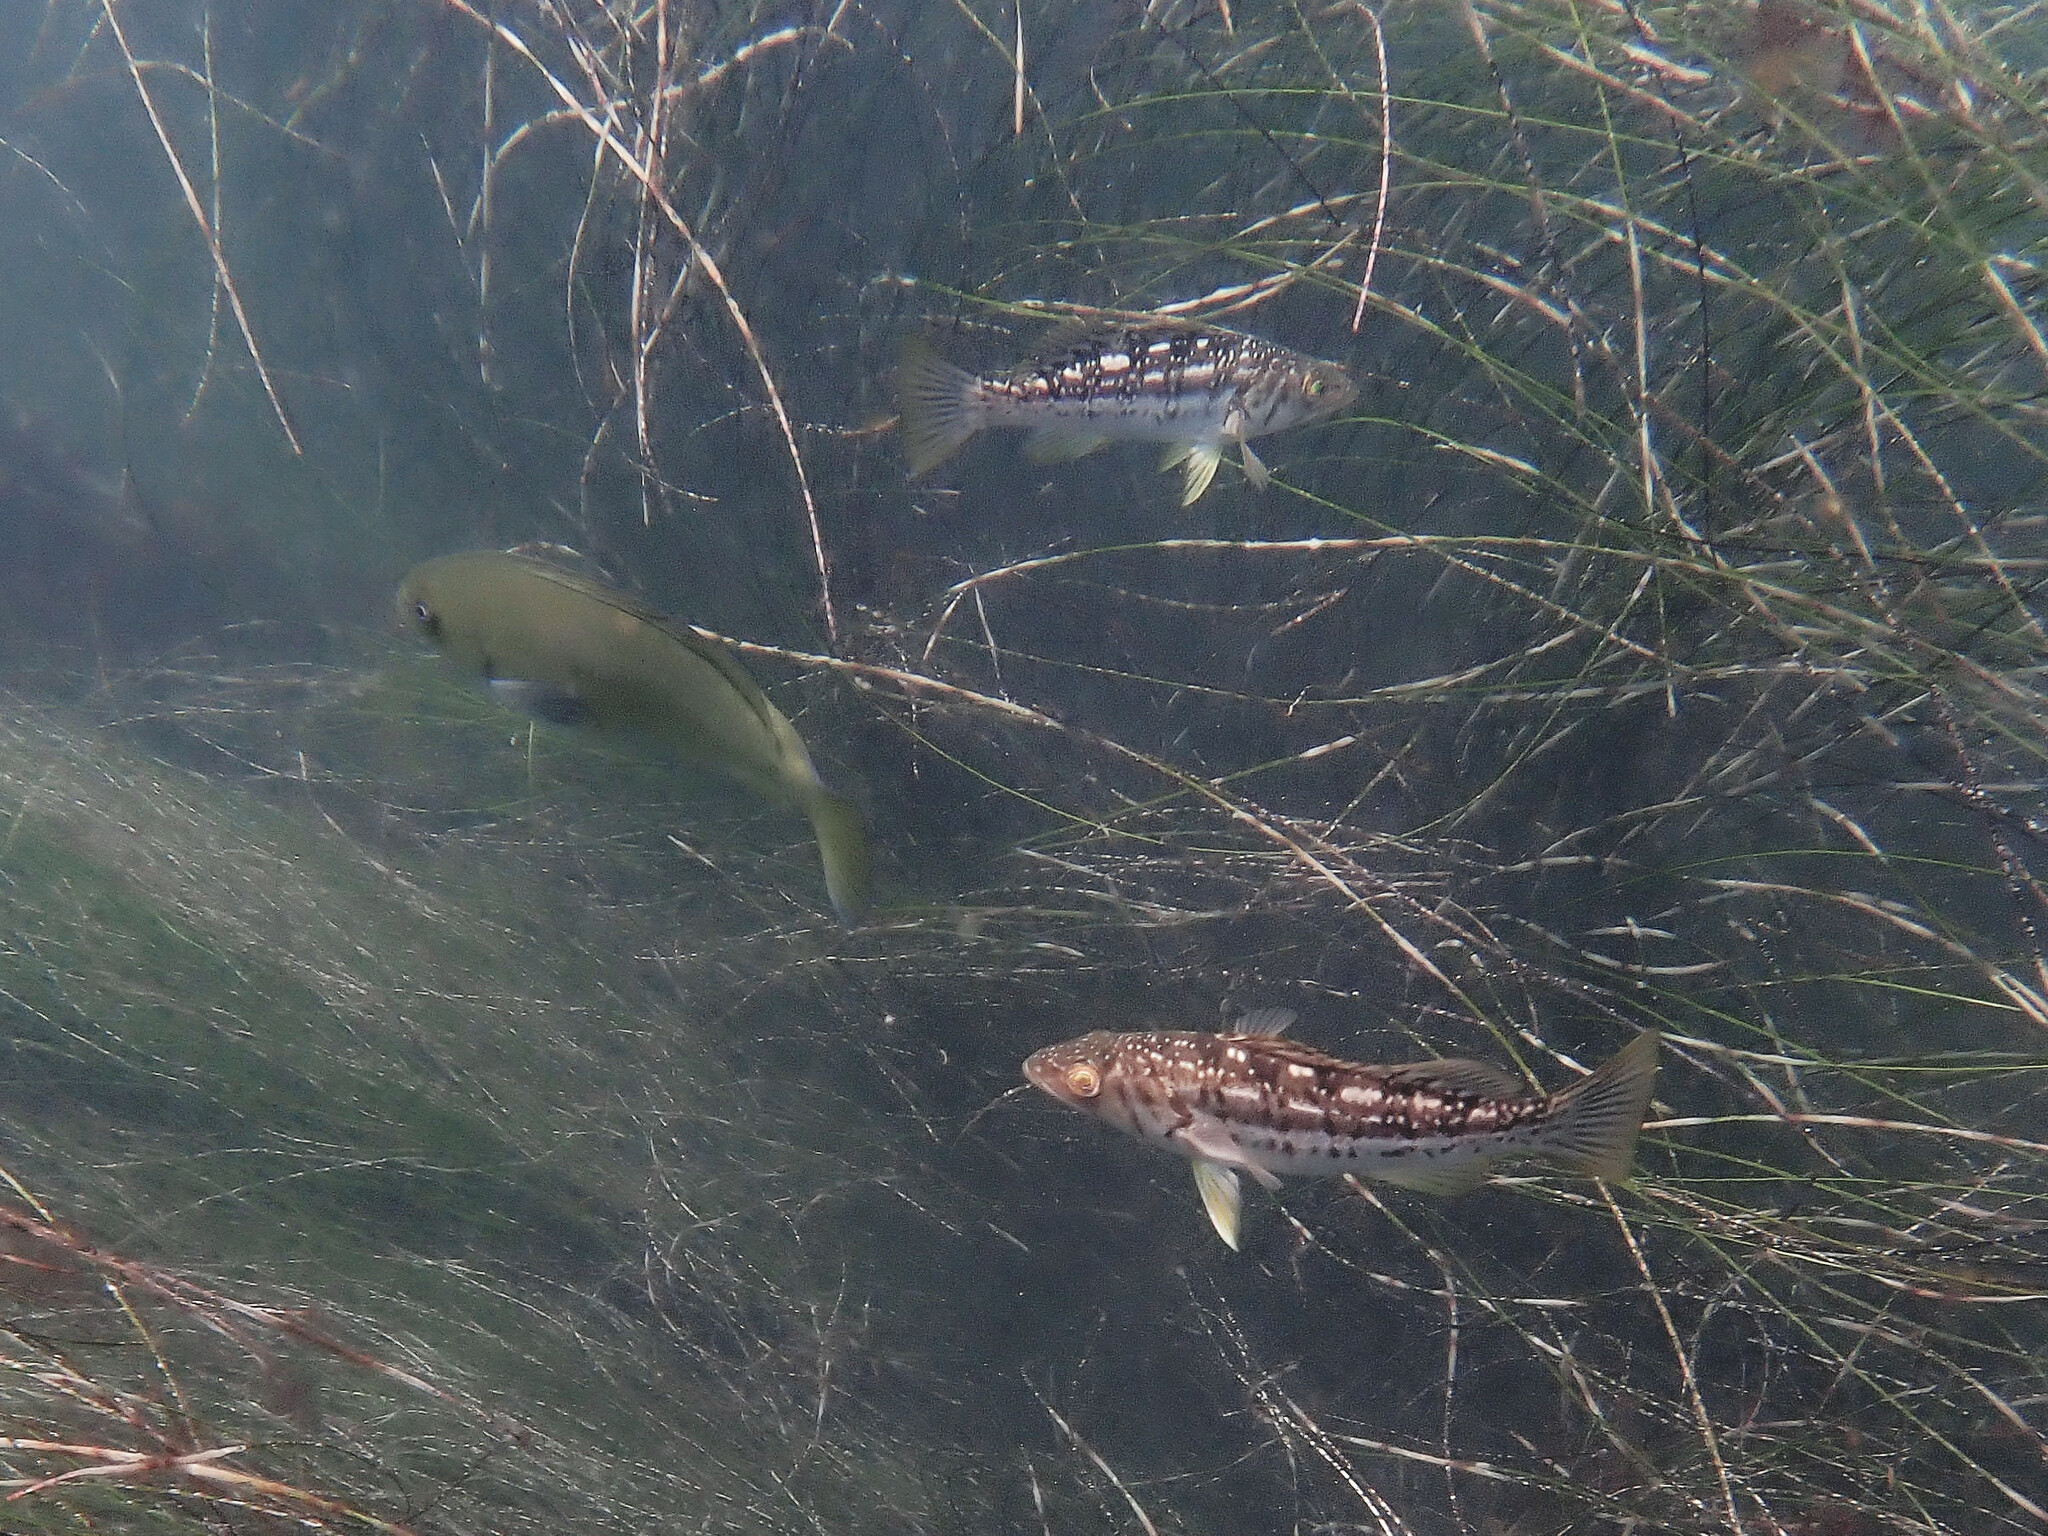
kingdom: Animalia
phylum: Chordata
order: Perciformes
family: Serranidae
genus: Paralabrax
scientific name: Paralabrax clathratus
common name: Kelp bass
